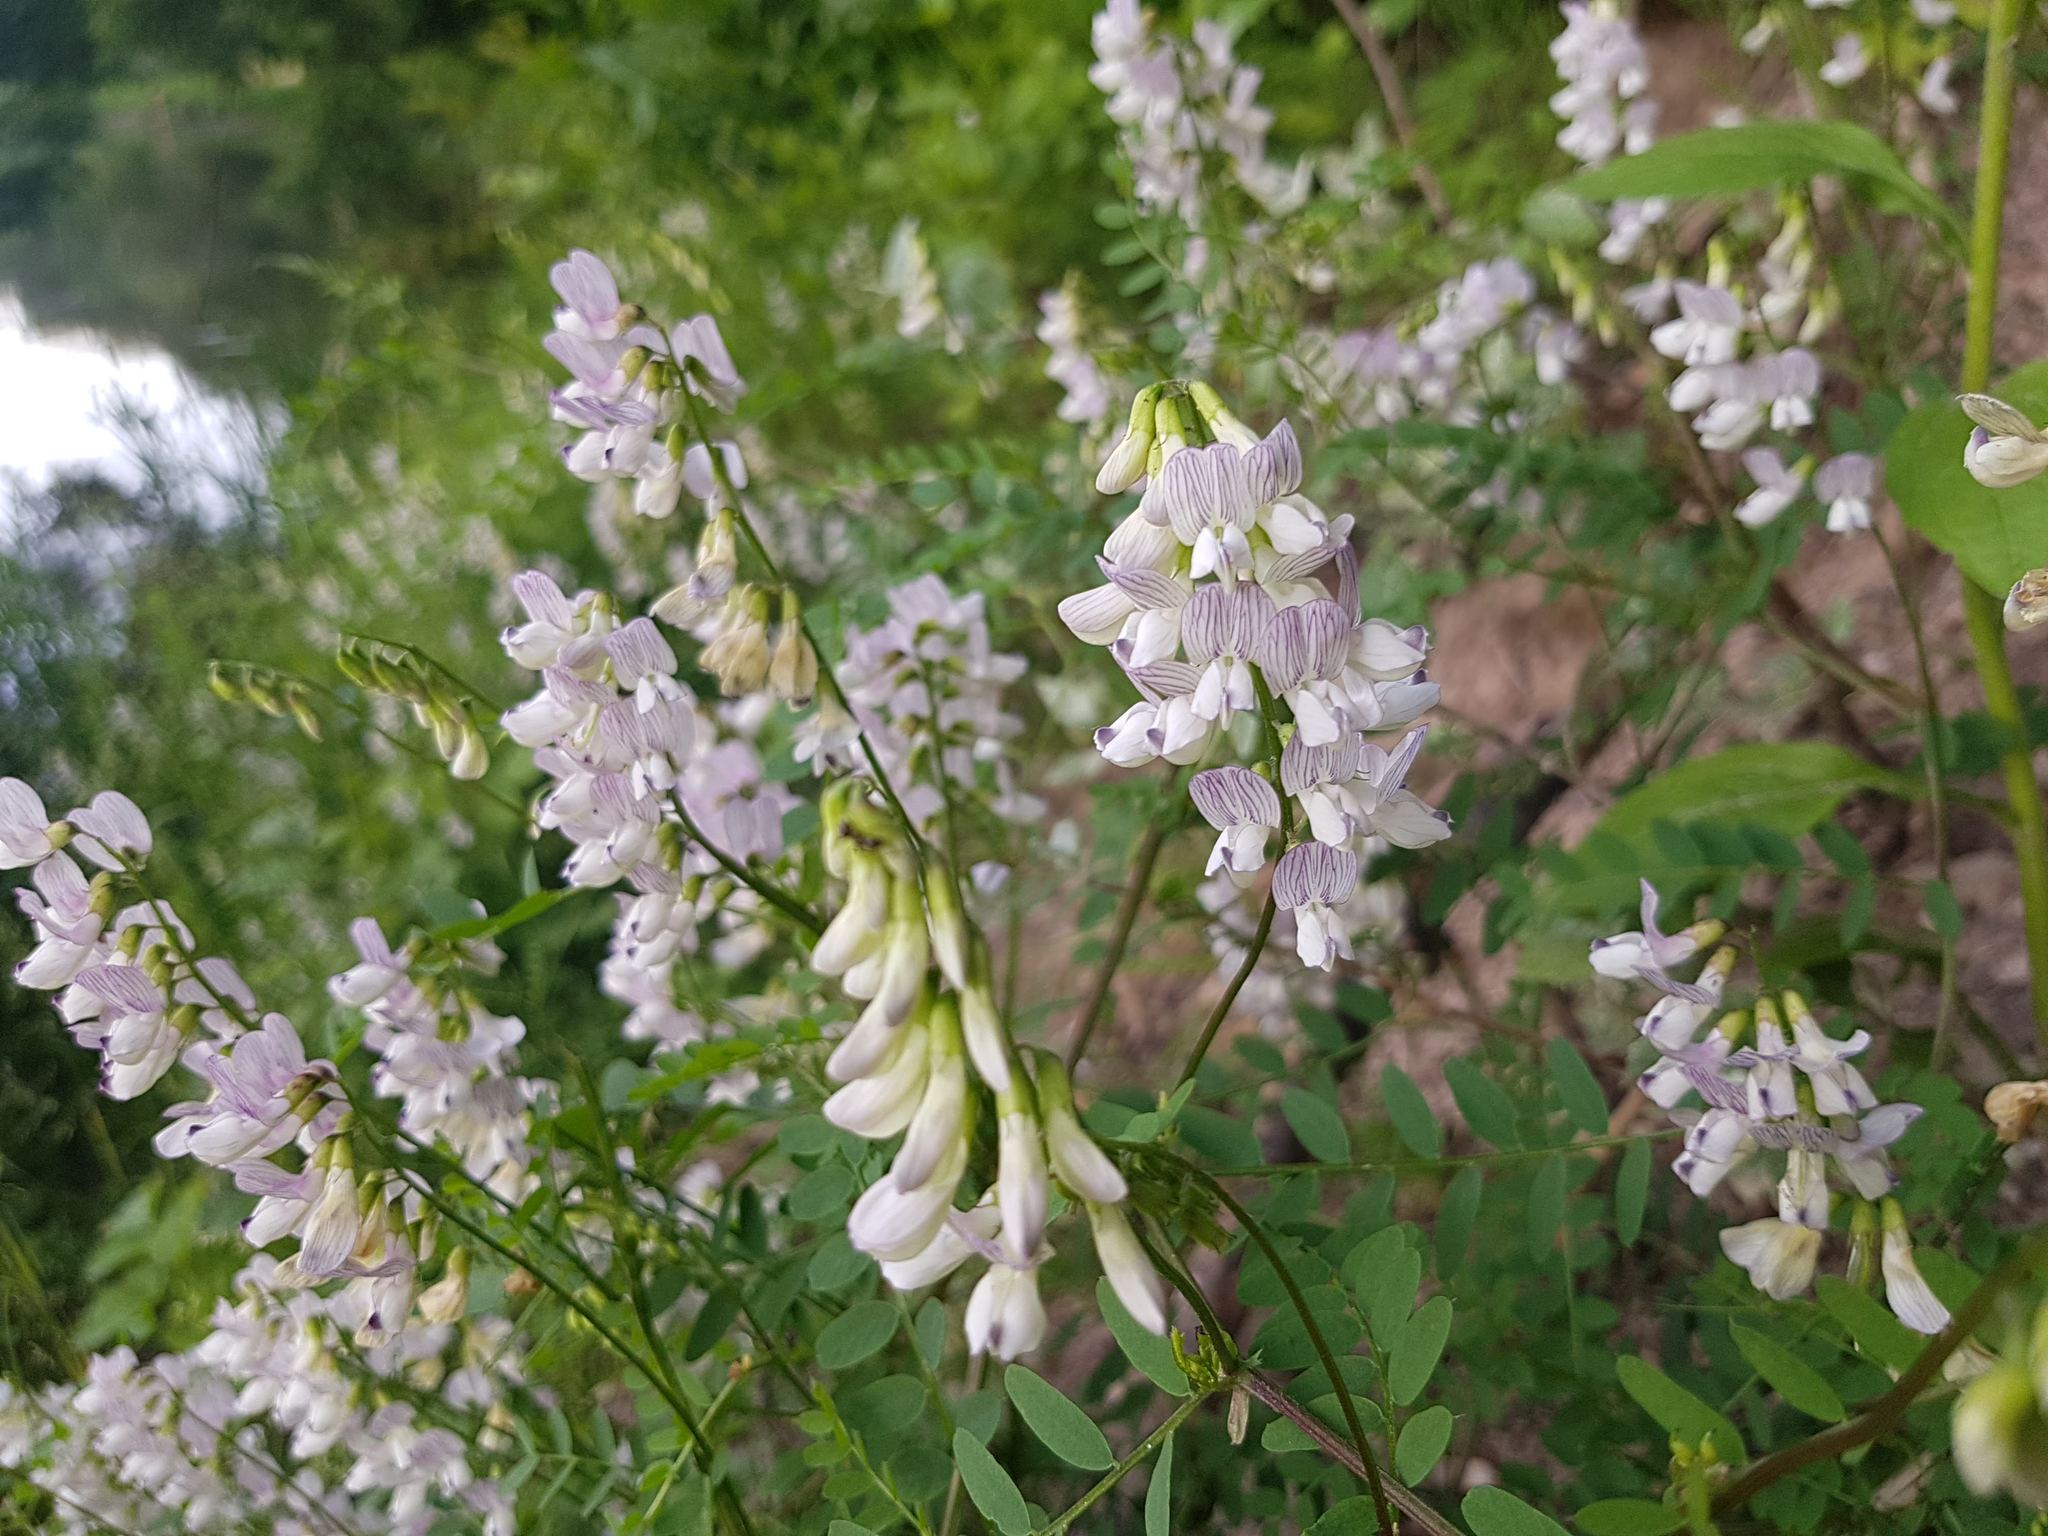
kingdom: Plantae
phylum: Tracheophyta
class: Magnoliopsida
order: Fabales
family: Fabaceae
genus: Vicia
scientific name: Vicia sylvatica
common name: Wood vetch
